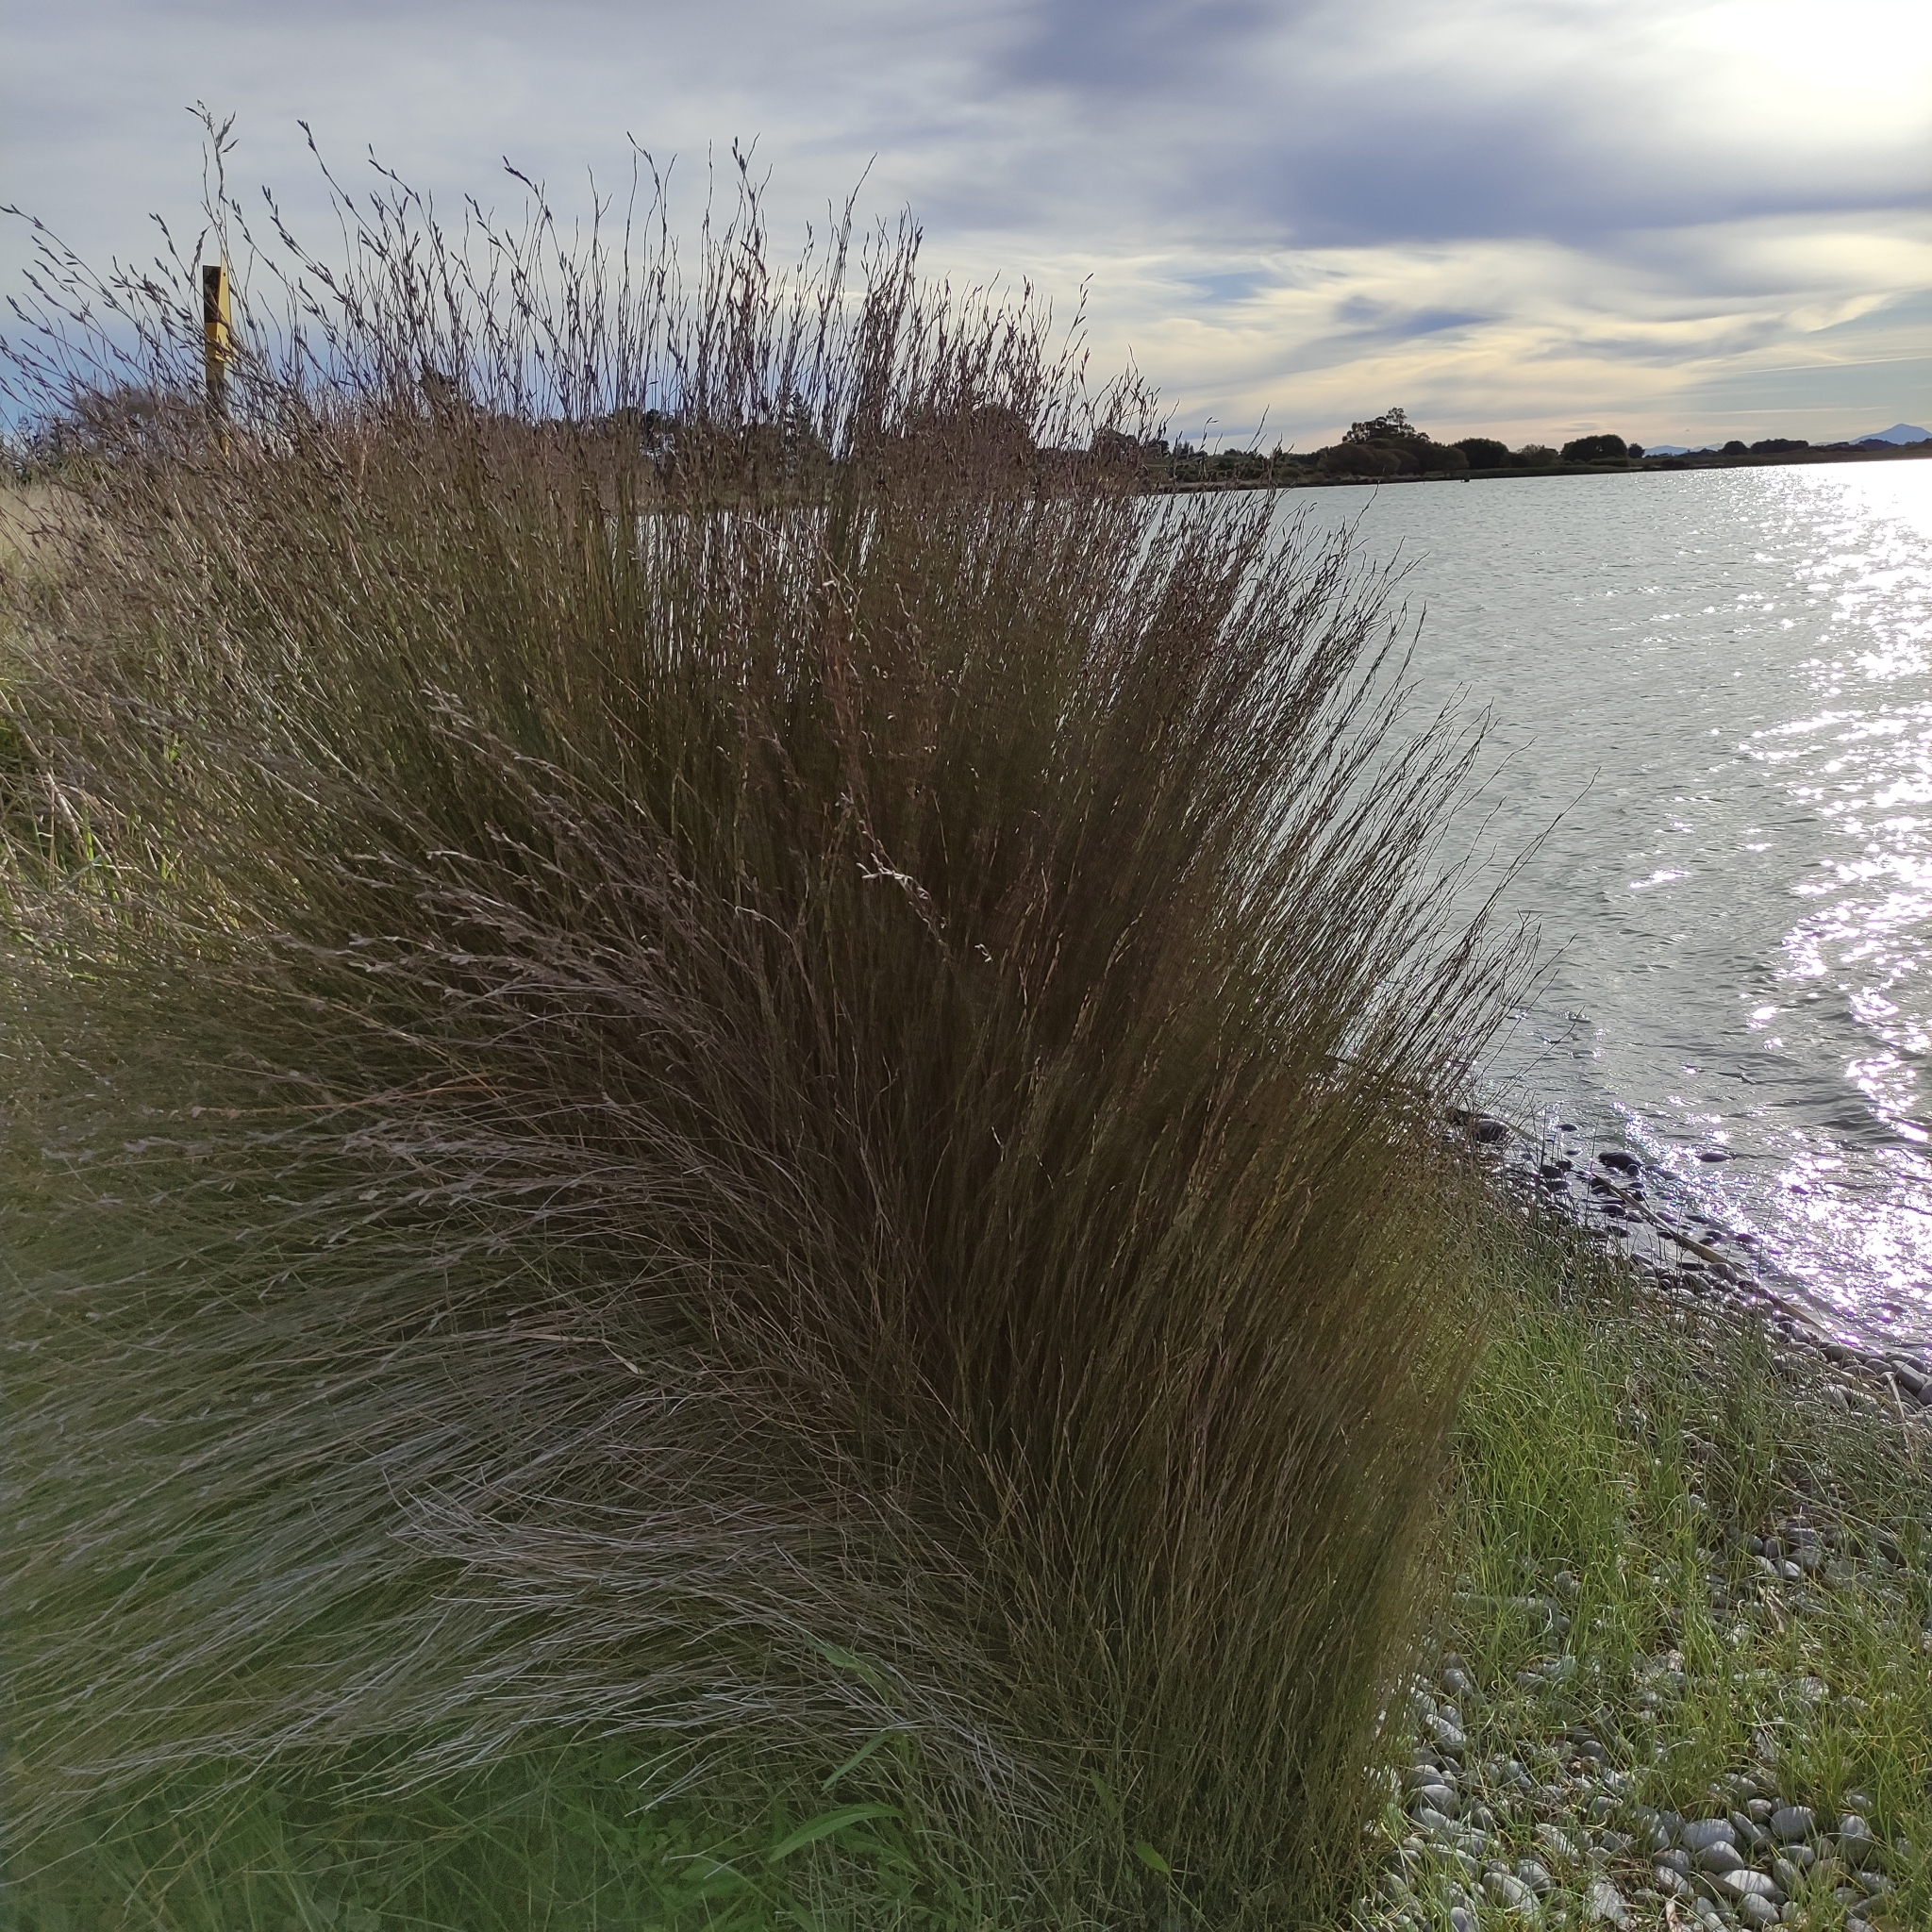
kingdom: Plantae
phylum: Tracheophyta
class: Liliopsida
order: Poales
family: Restionaceae
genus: Apodasmia
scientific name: Apodasmia similis
